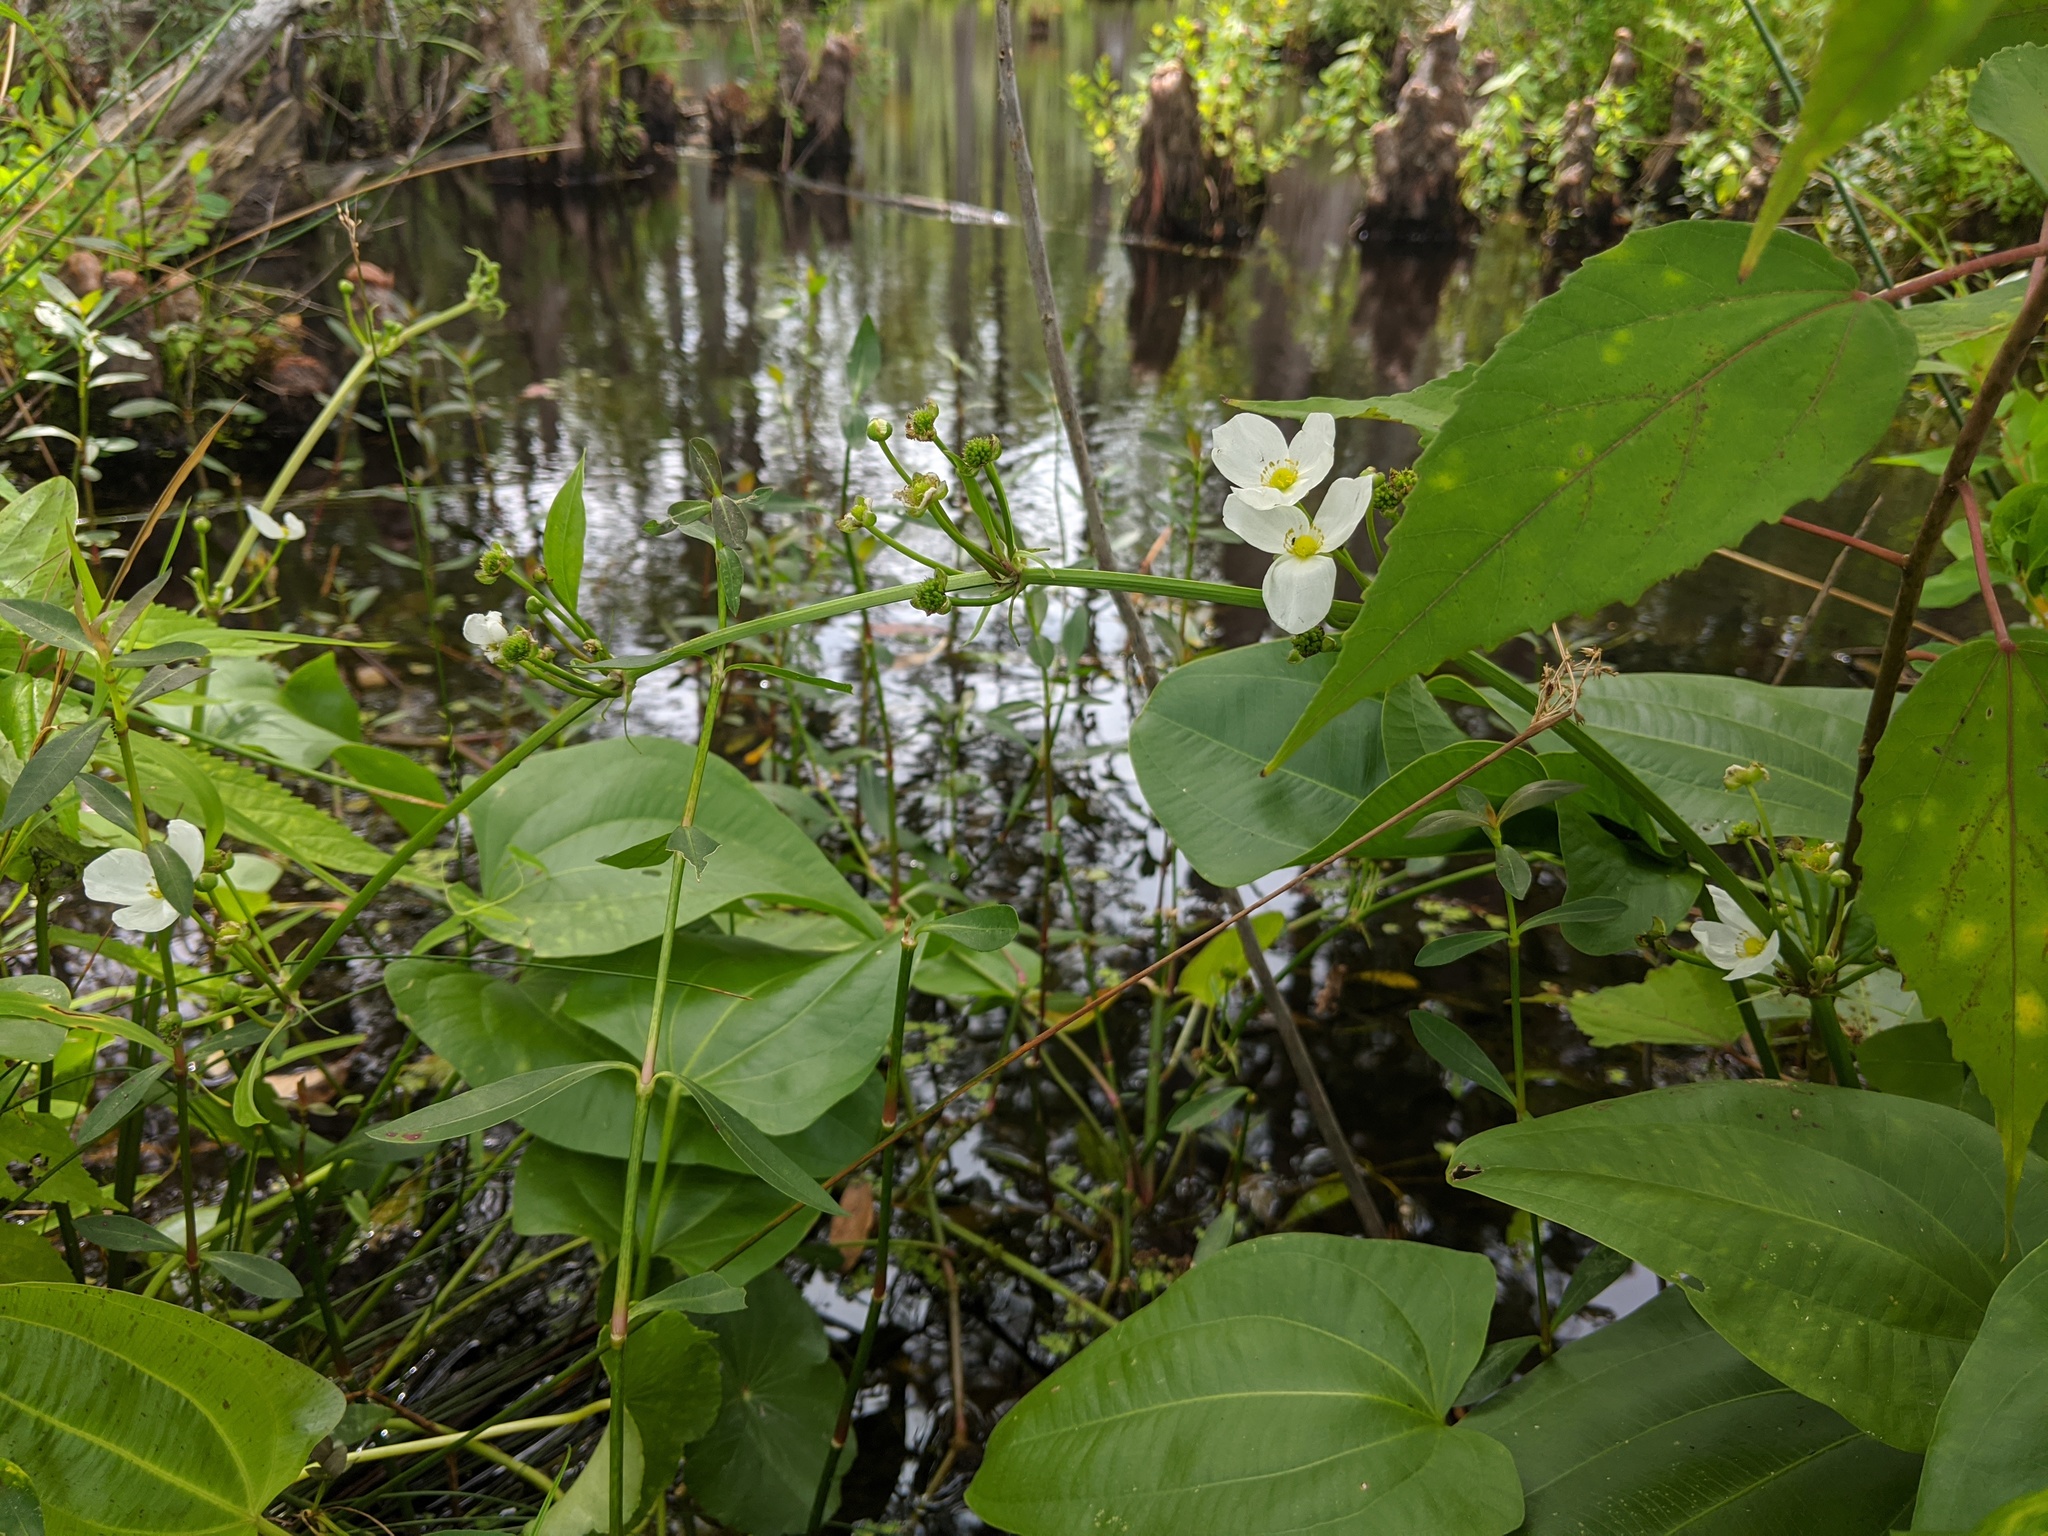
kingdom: Plantae
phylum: Tracheophyta
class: Liliopsida
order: Alismatales
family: Alismataceae
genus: Aquarius
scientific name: Aquarius cordifolius
